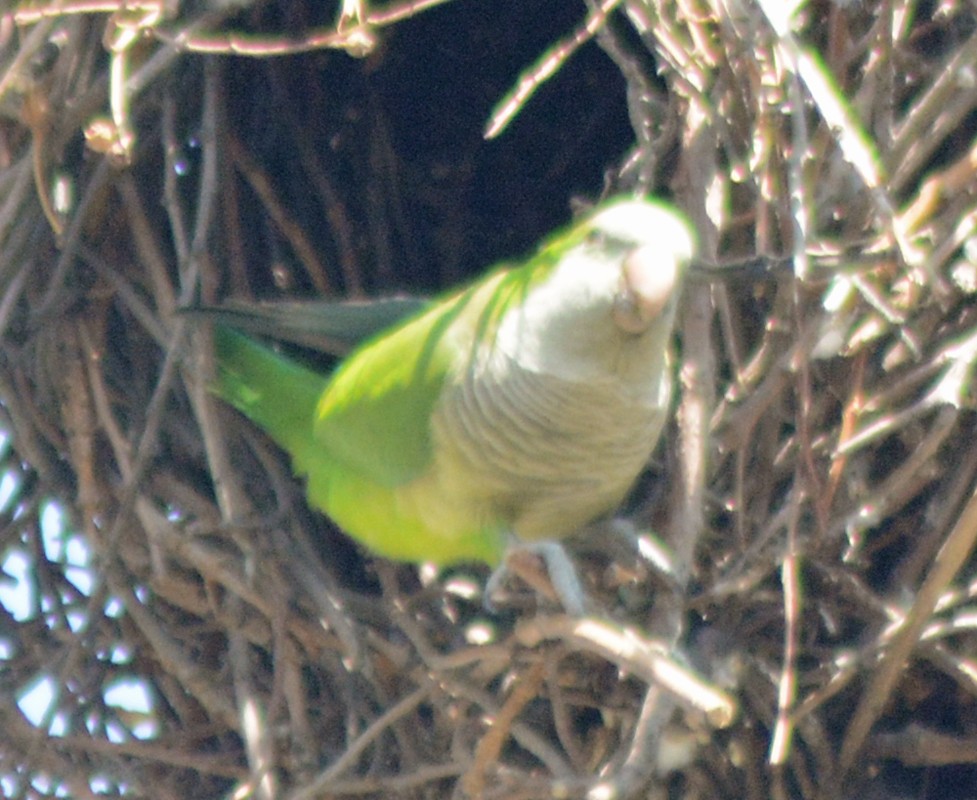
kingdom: Animalia
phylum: Chordata
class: Aves
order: Psittaciformes
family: Psittacidae
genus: Myiopsitta
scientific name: Myiopsitta monachus
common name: Monk parakeet
